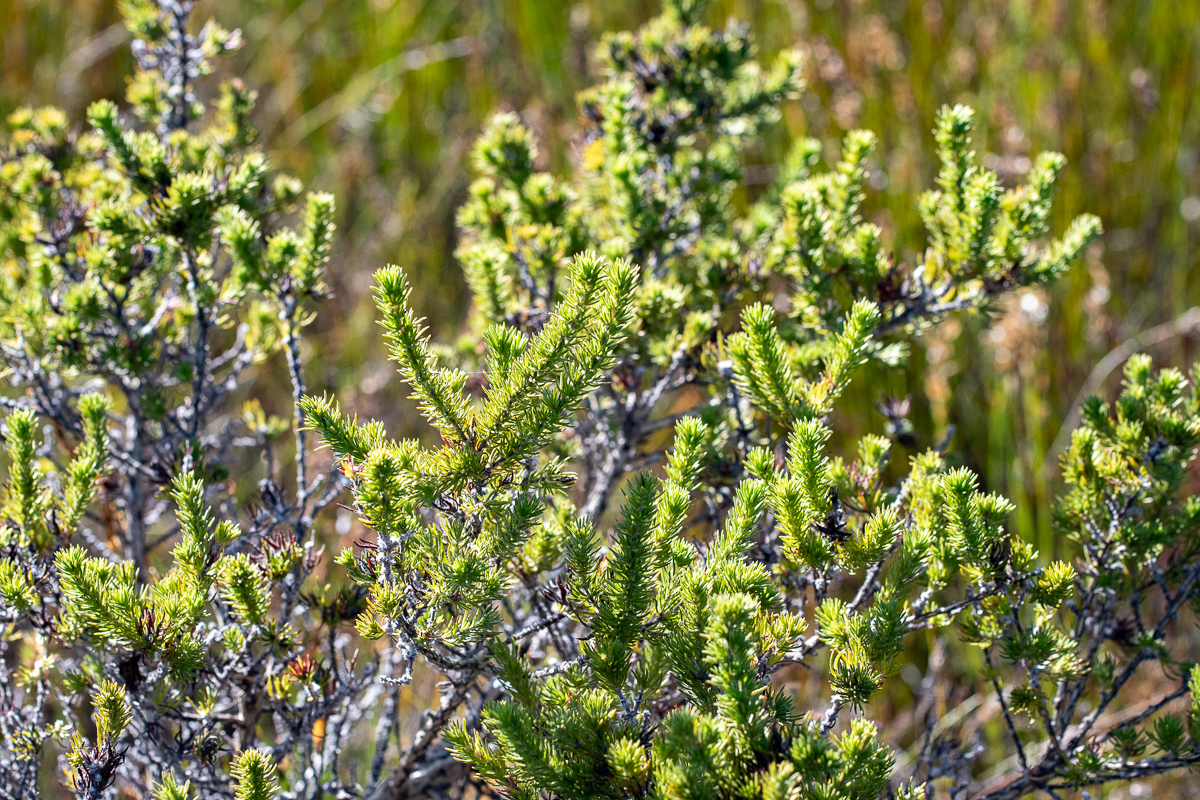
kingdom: Plantae
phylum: Tracheophyta
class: Magnoliopsida
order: Fabales
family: Fabaceae
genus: Aspalathus
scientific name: Aspalathus ciliaris
